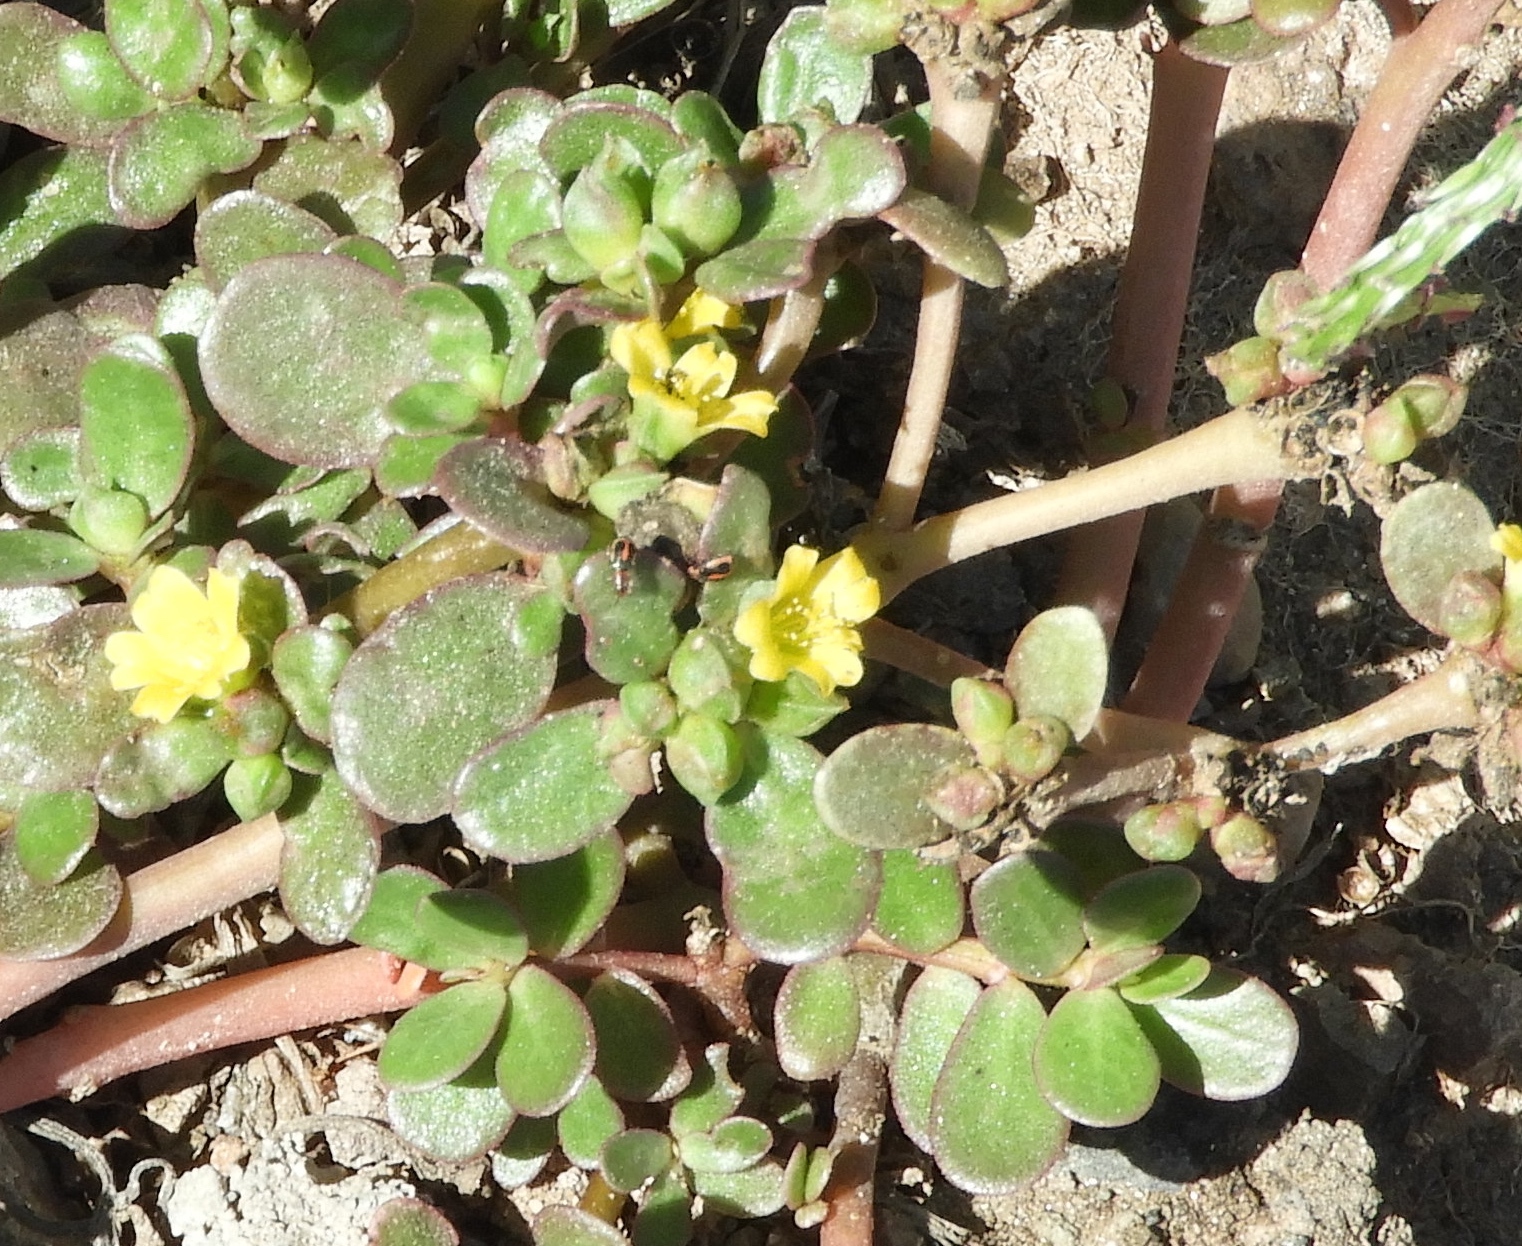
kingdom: Plantae
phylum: Tracheophyta
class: Magnoliopsida
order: Caryophyllales
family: Portulacaceae
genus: Portulaca
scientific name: Portulaca oleracea
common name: Common purslane
